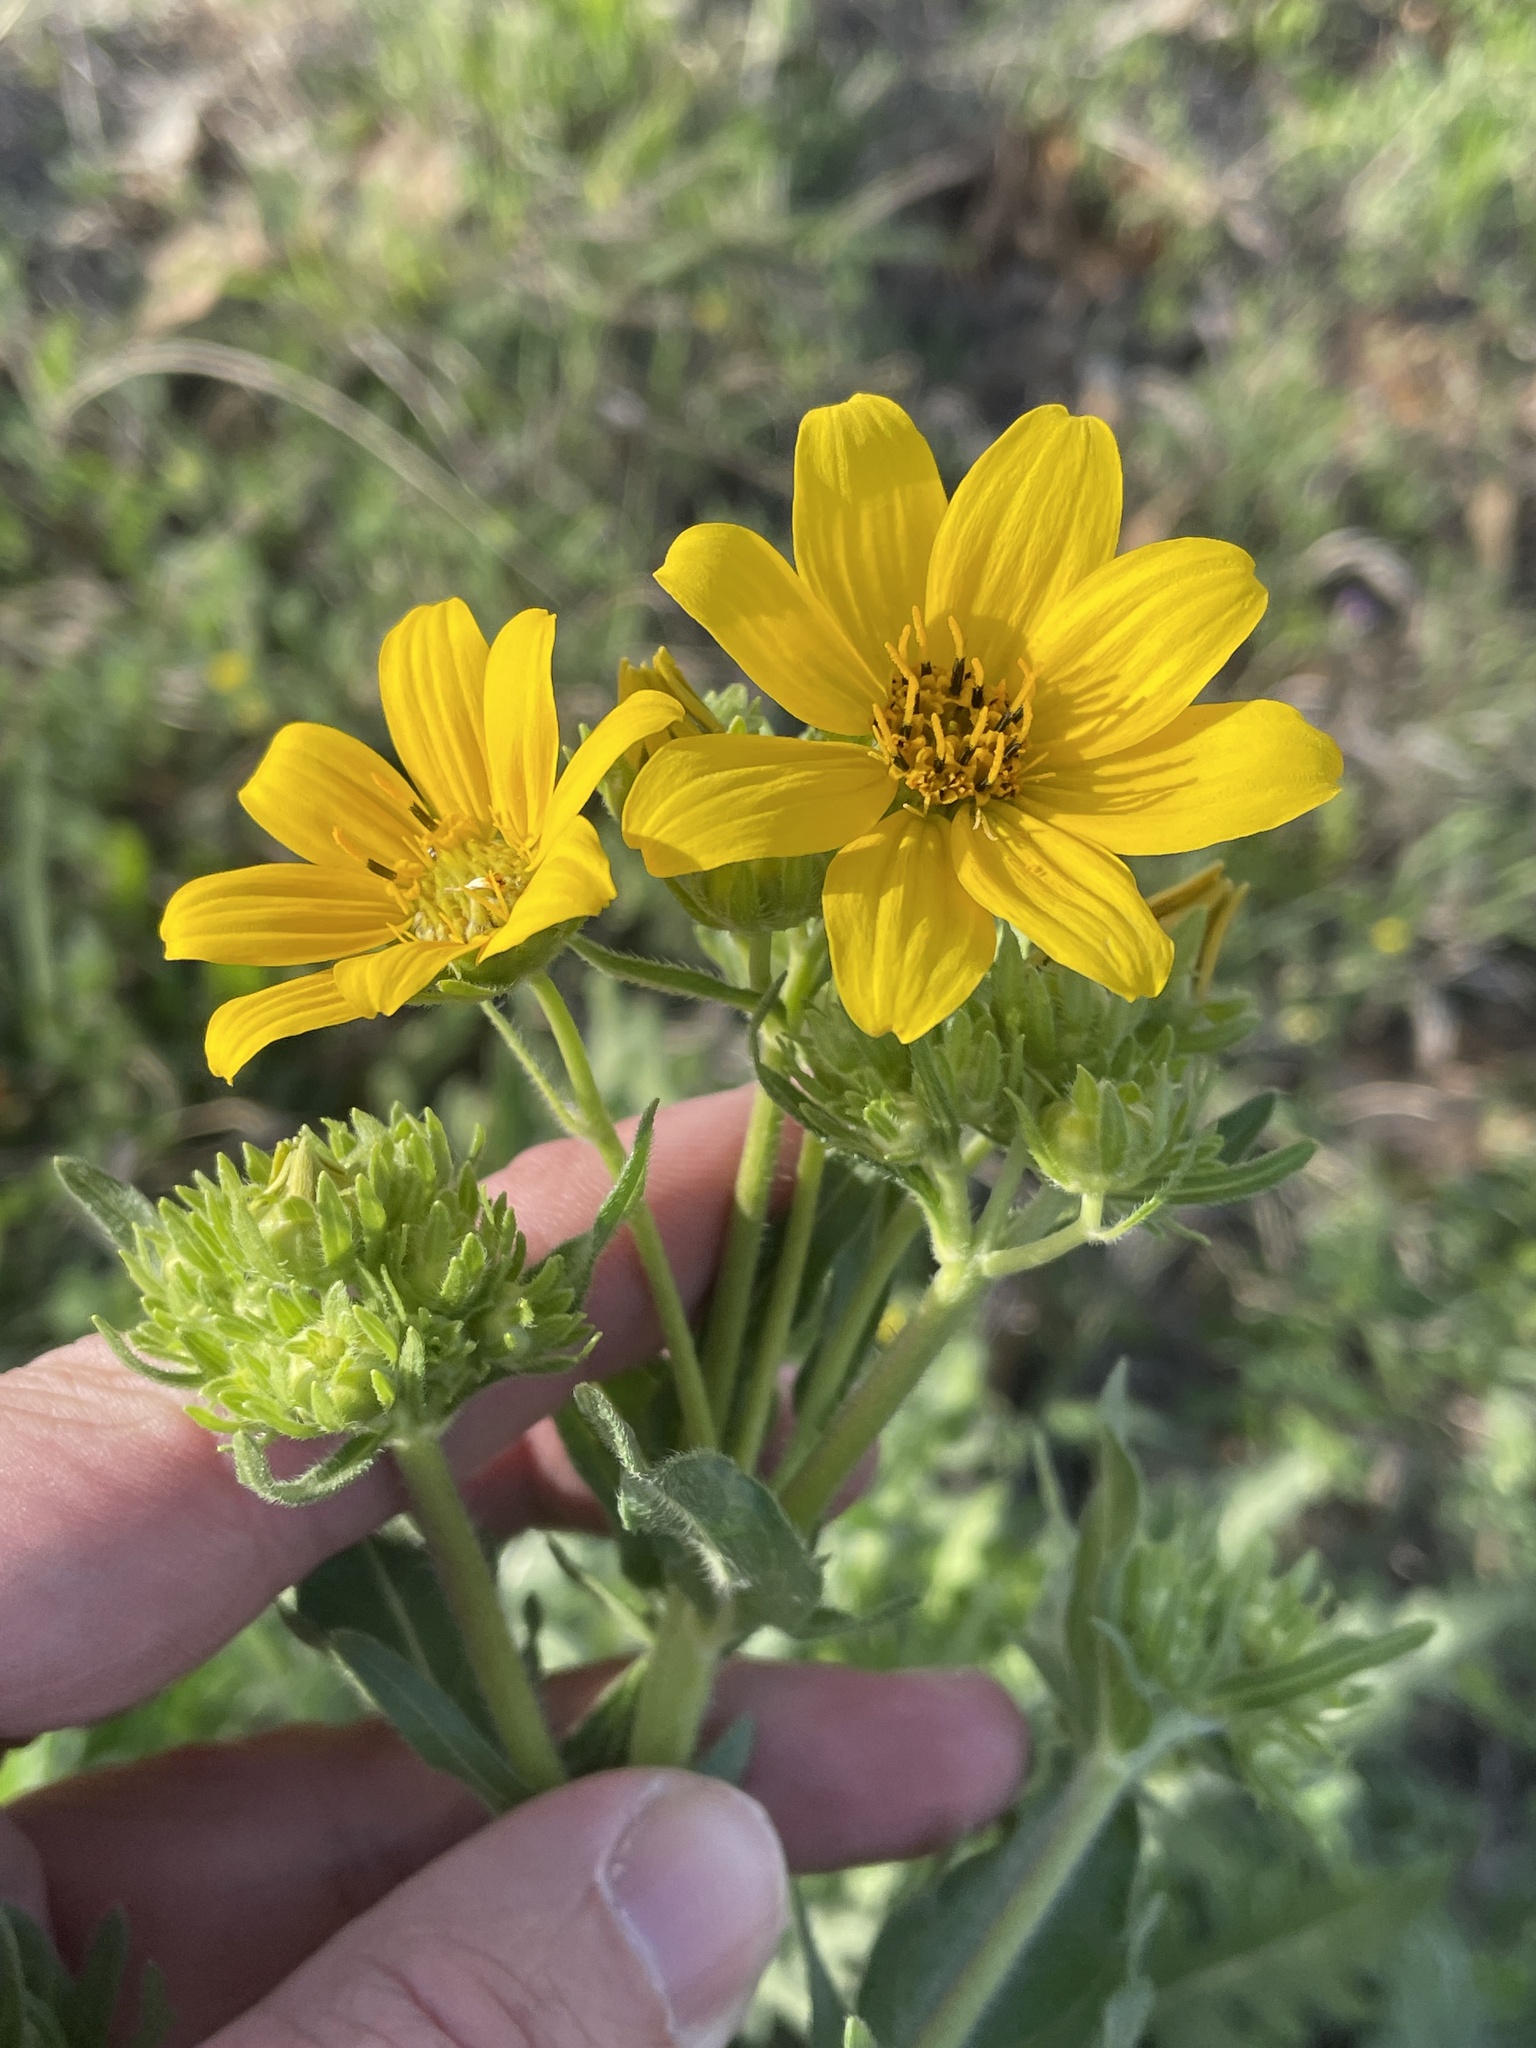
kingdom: Plantae
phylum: Tracheophyta
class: Magnoliopsida
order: Asterales
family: Asteraceae
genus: Engelmannia
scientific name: Engelmannia peristenia
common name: Engelmann's daisy
